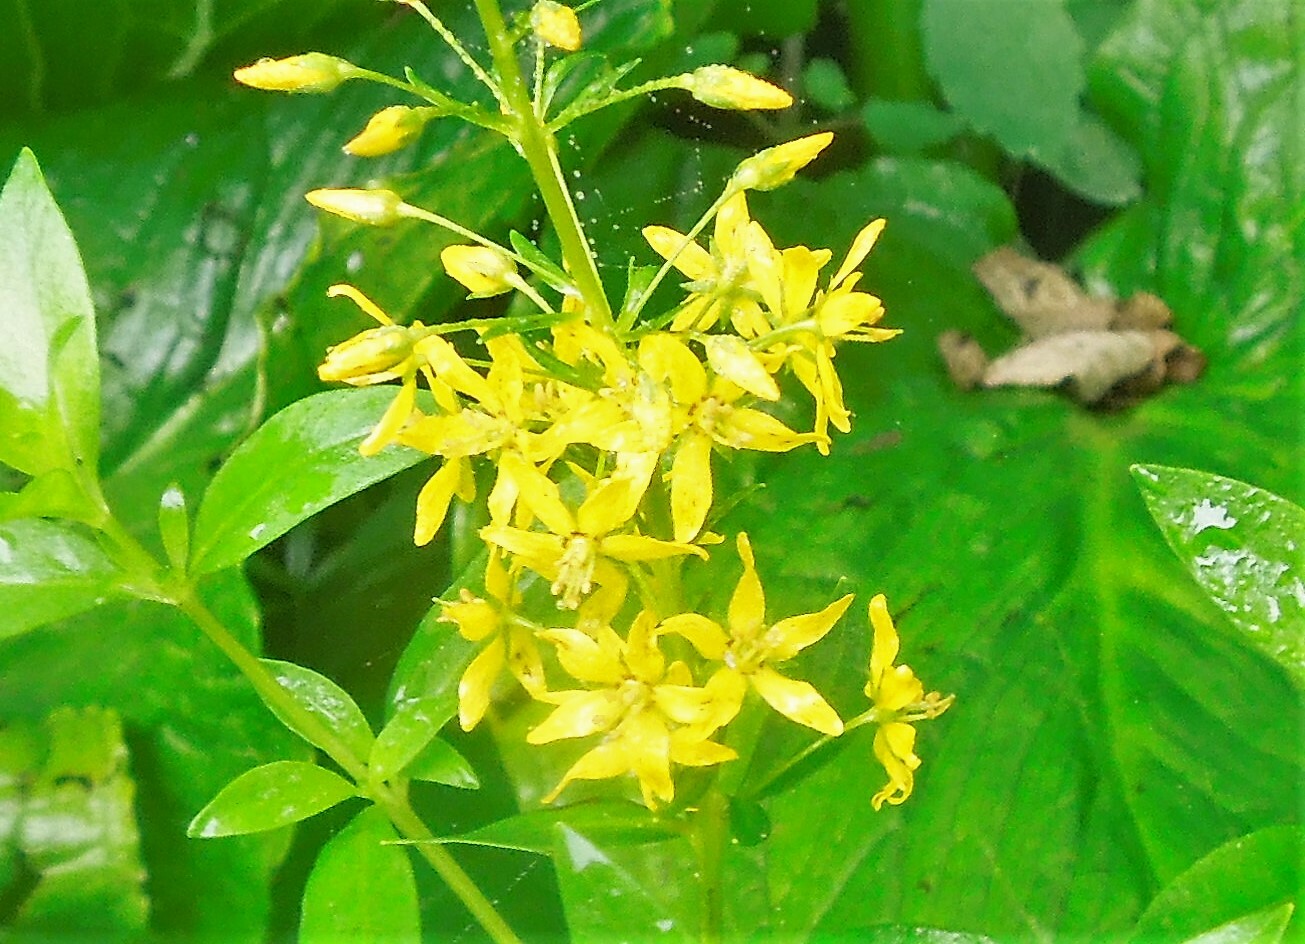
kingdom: Plantae
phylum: Tracheophyta
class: Magnoliopsida
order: Ericales
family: Primulaceae
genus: Lysimachia
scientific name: Lysimachia terrestris
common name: Lake loosestrife
